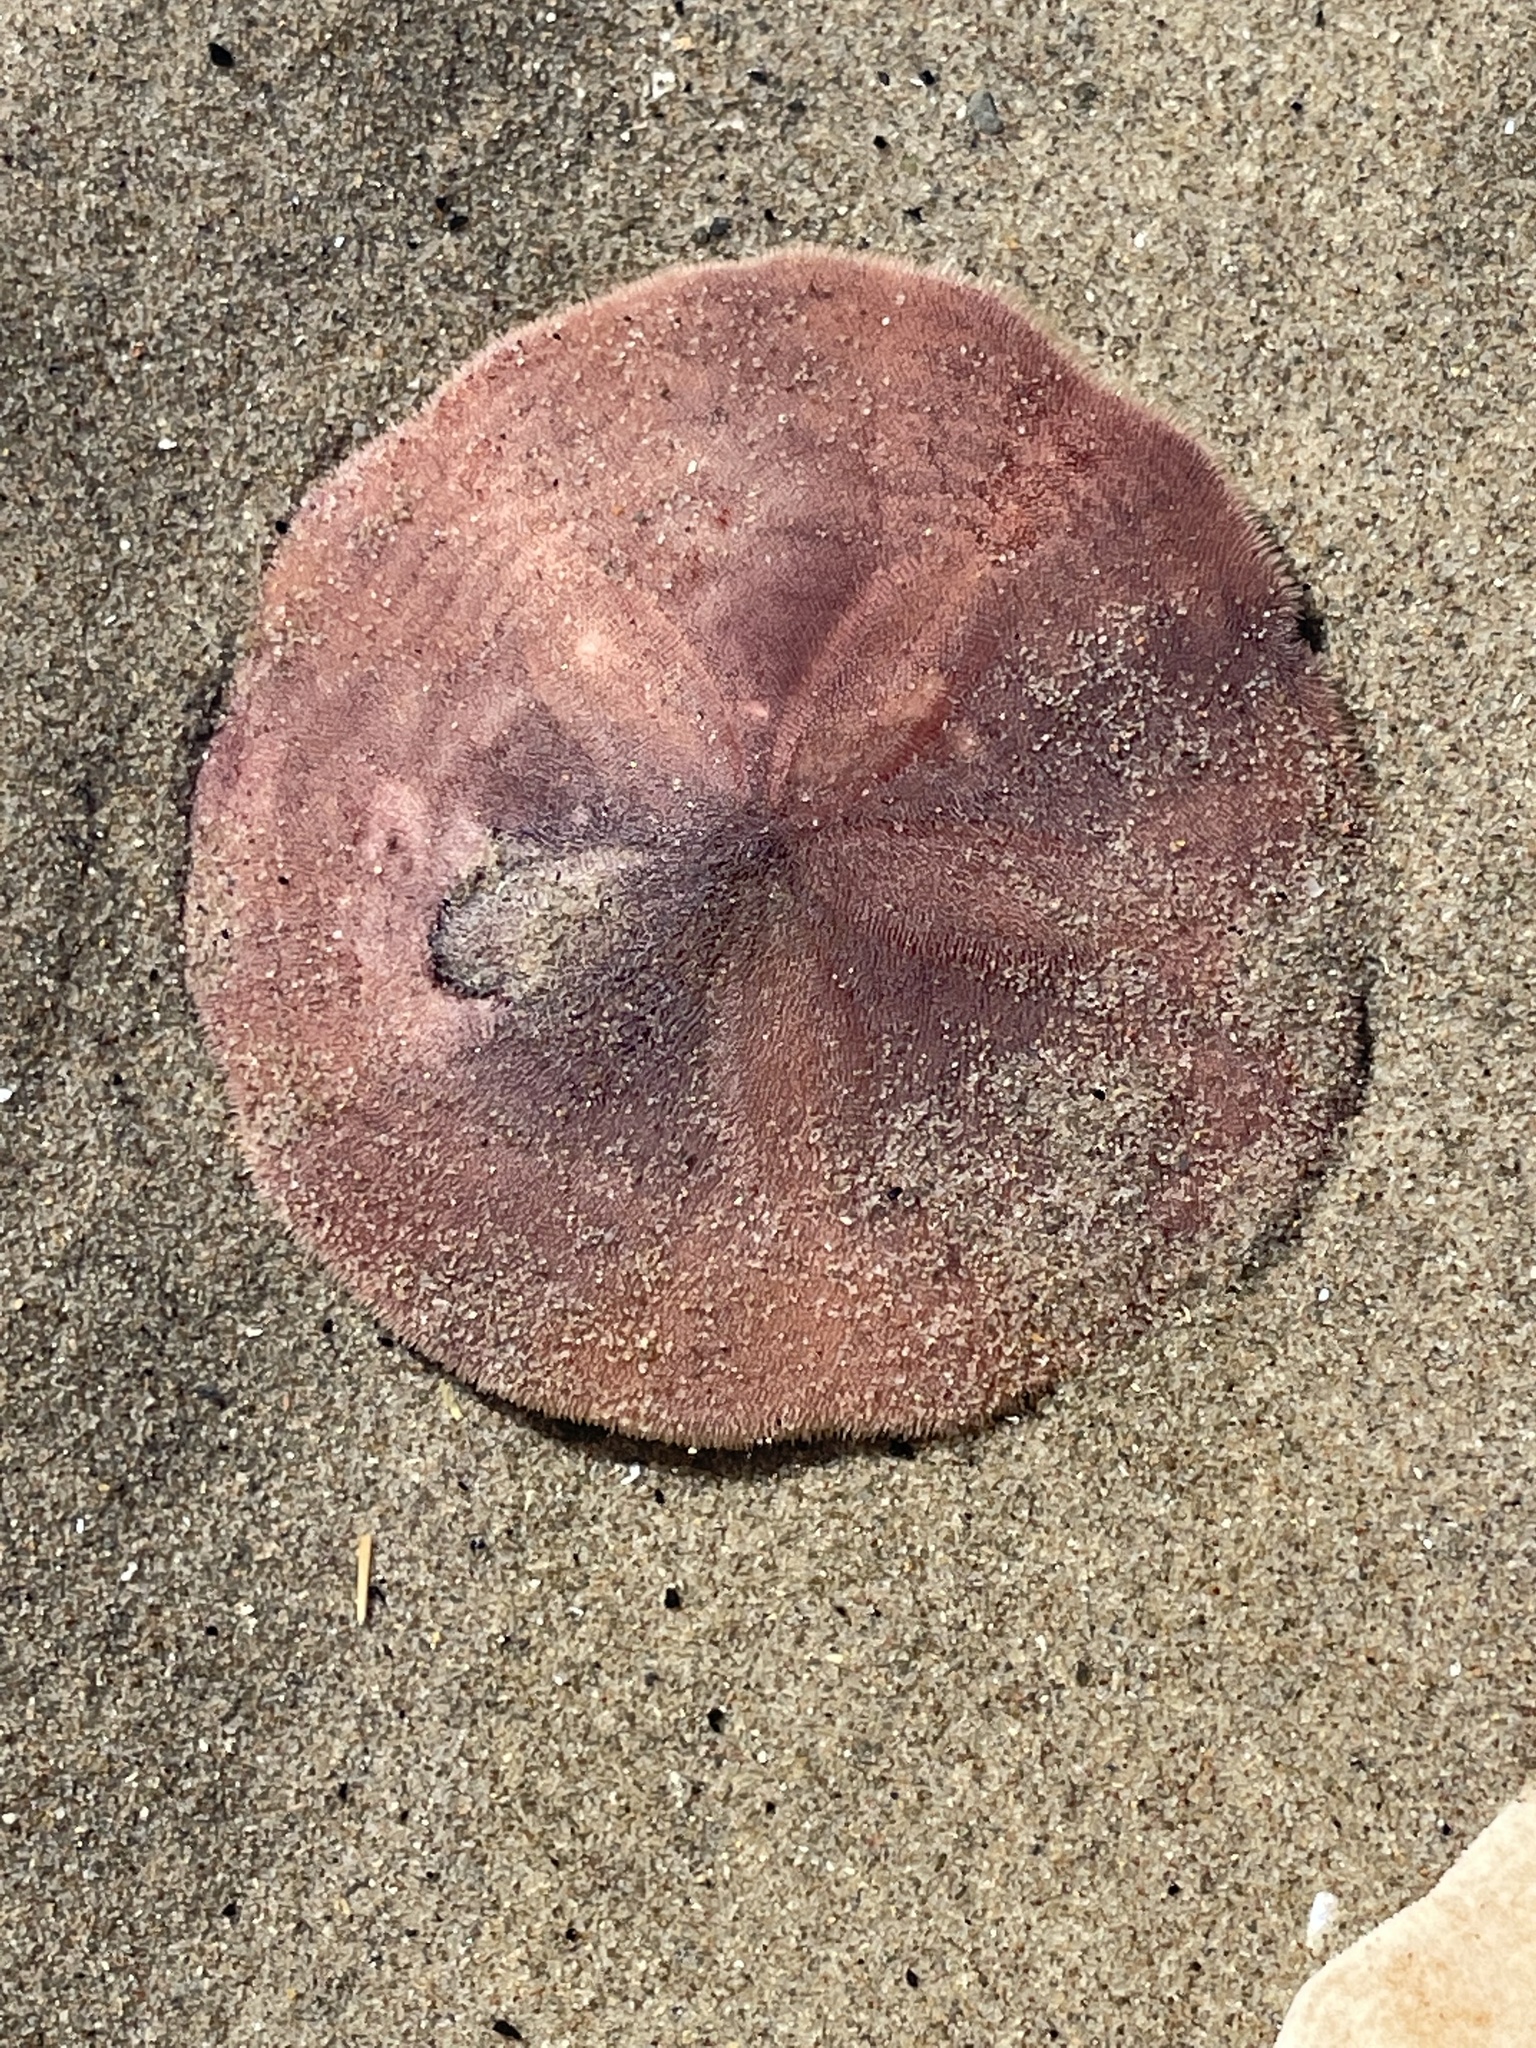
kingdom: Animalia
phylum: Echinodermata
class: Echinoidea
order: Echinolampadacea
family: Echinarachniidae
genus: Echinarachnius
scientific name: Echinarachnius parma
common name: Common sand dollar
